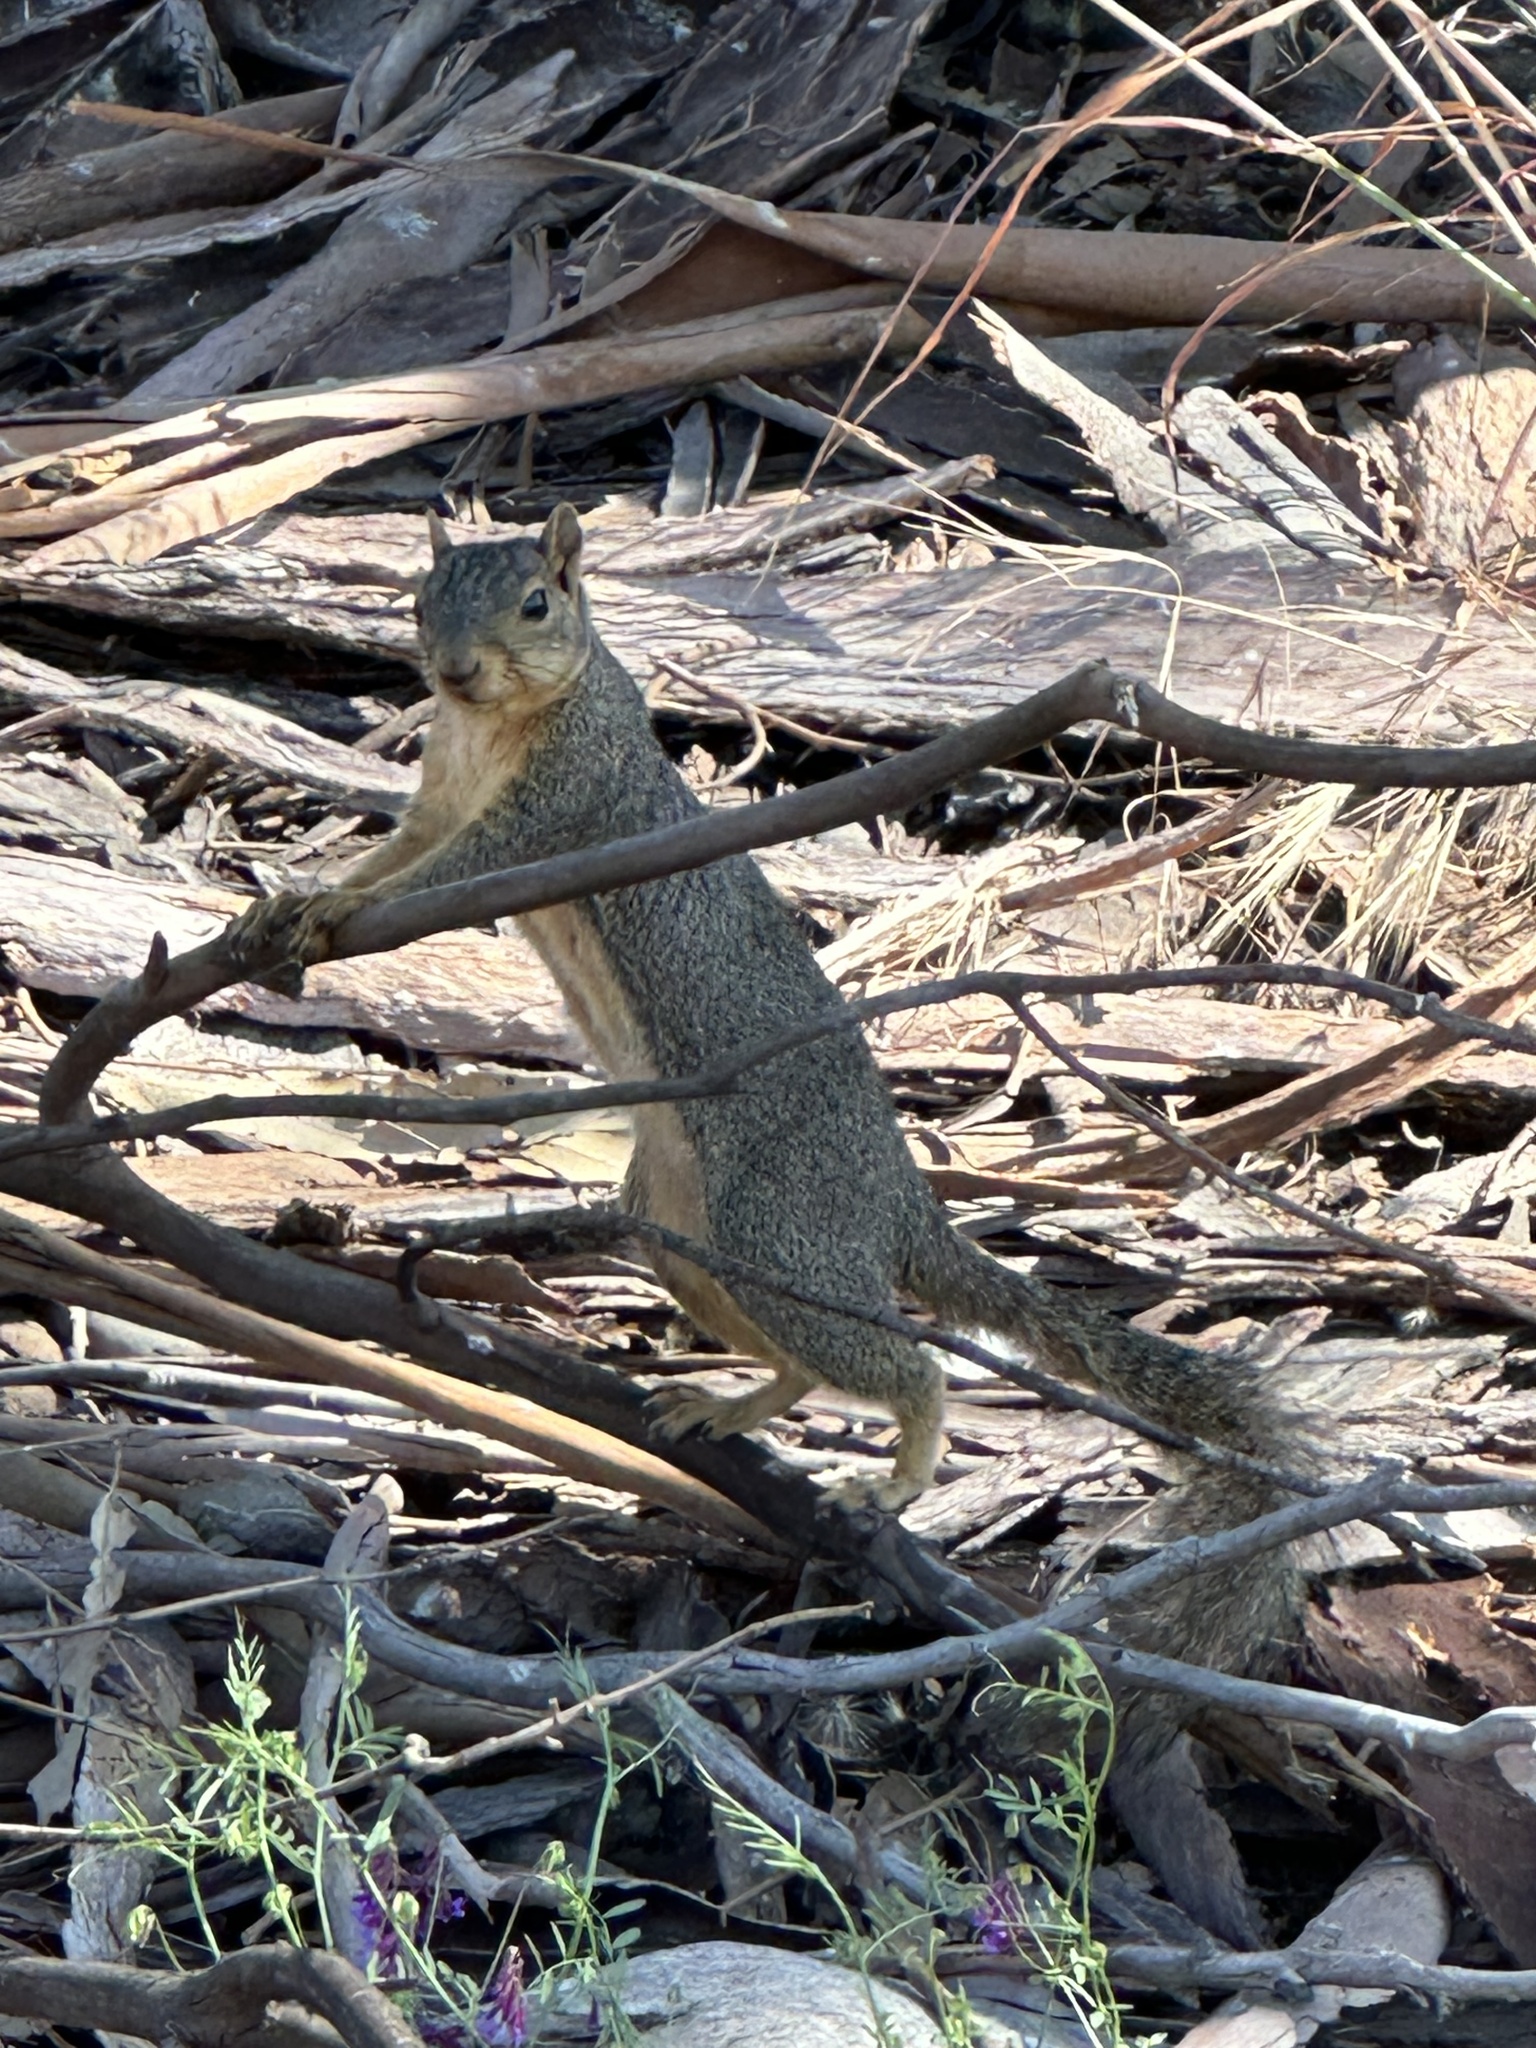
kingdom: Animalia
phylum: Chordata
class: Mammalia
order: Rodentia
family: Sciuridae
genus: Sciurus
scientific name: Sciurus niger
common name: Fox squirrel
